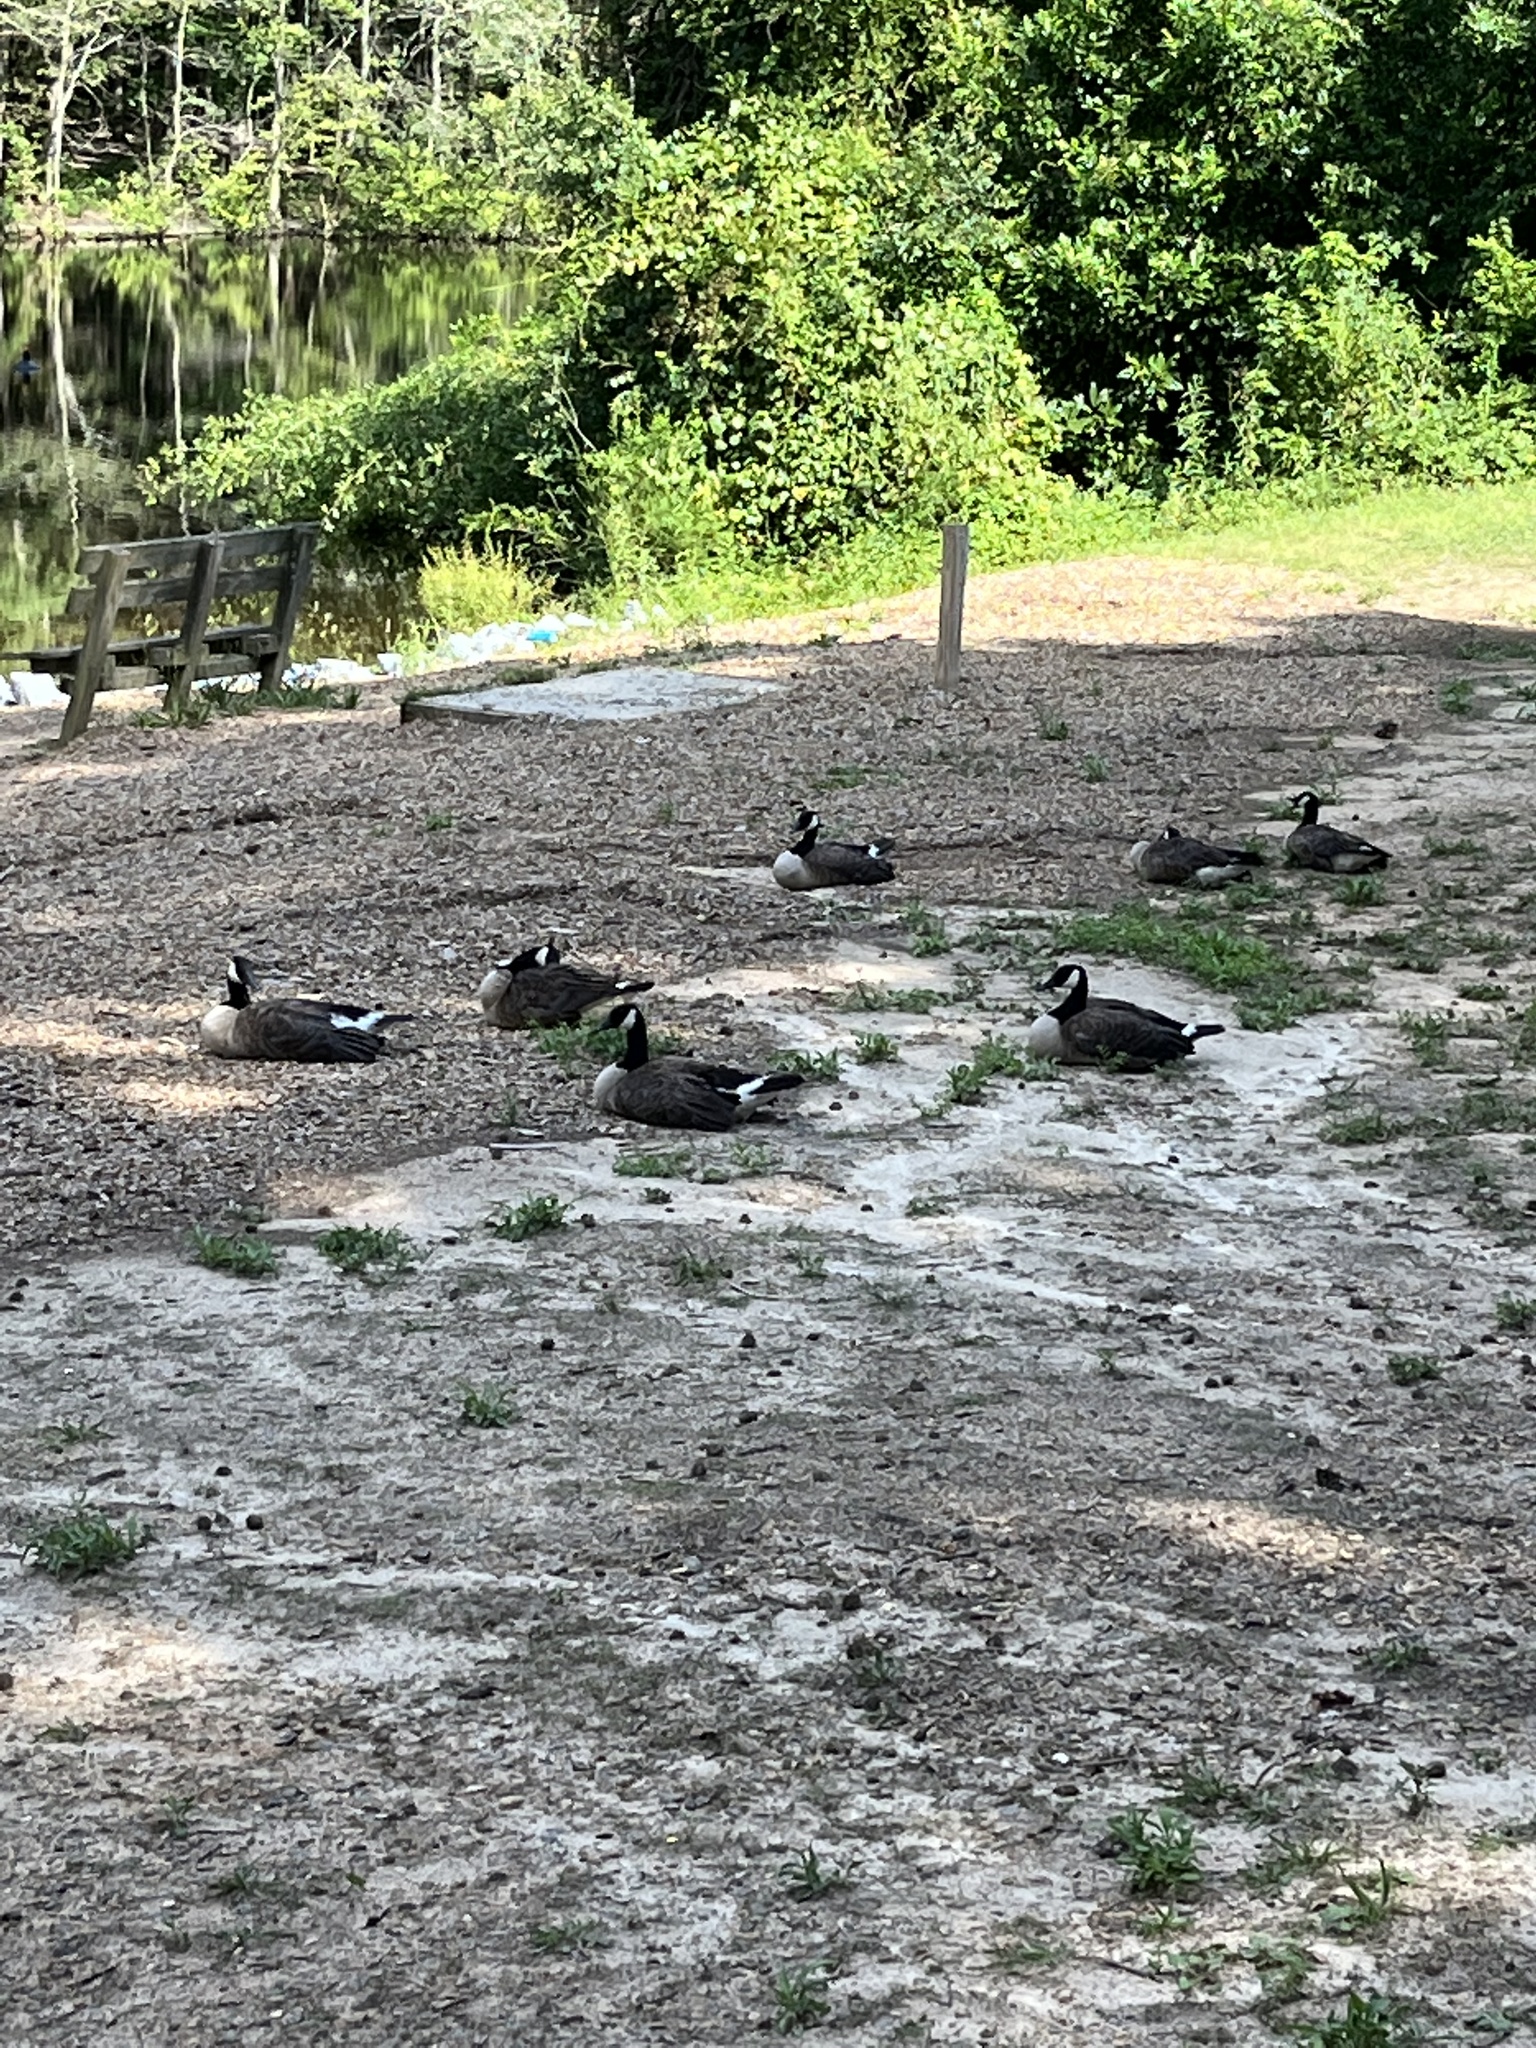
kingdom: Animalia
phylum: Chordata
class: Aves
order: Anseriformes
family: Anatidae
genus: Branta
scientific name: Branta canadensis
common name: Canada goose
